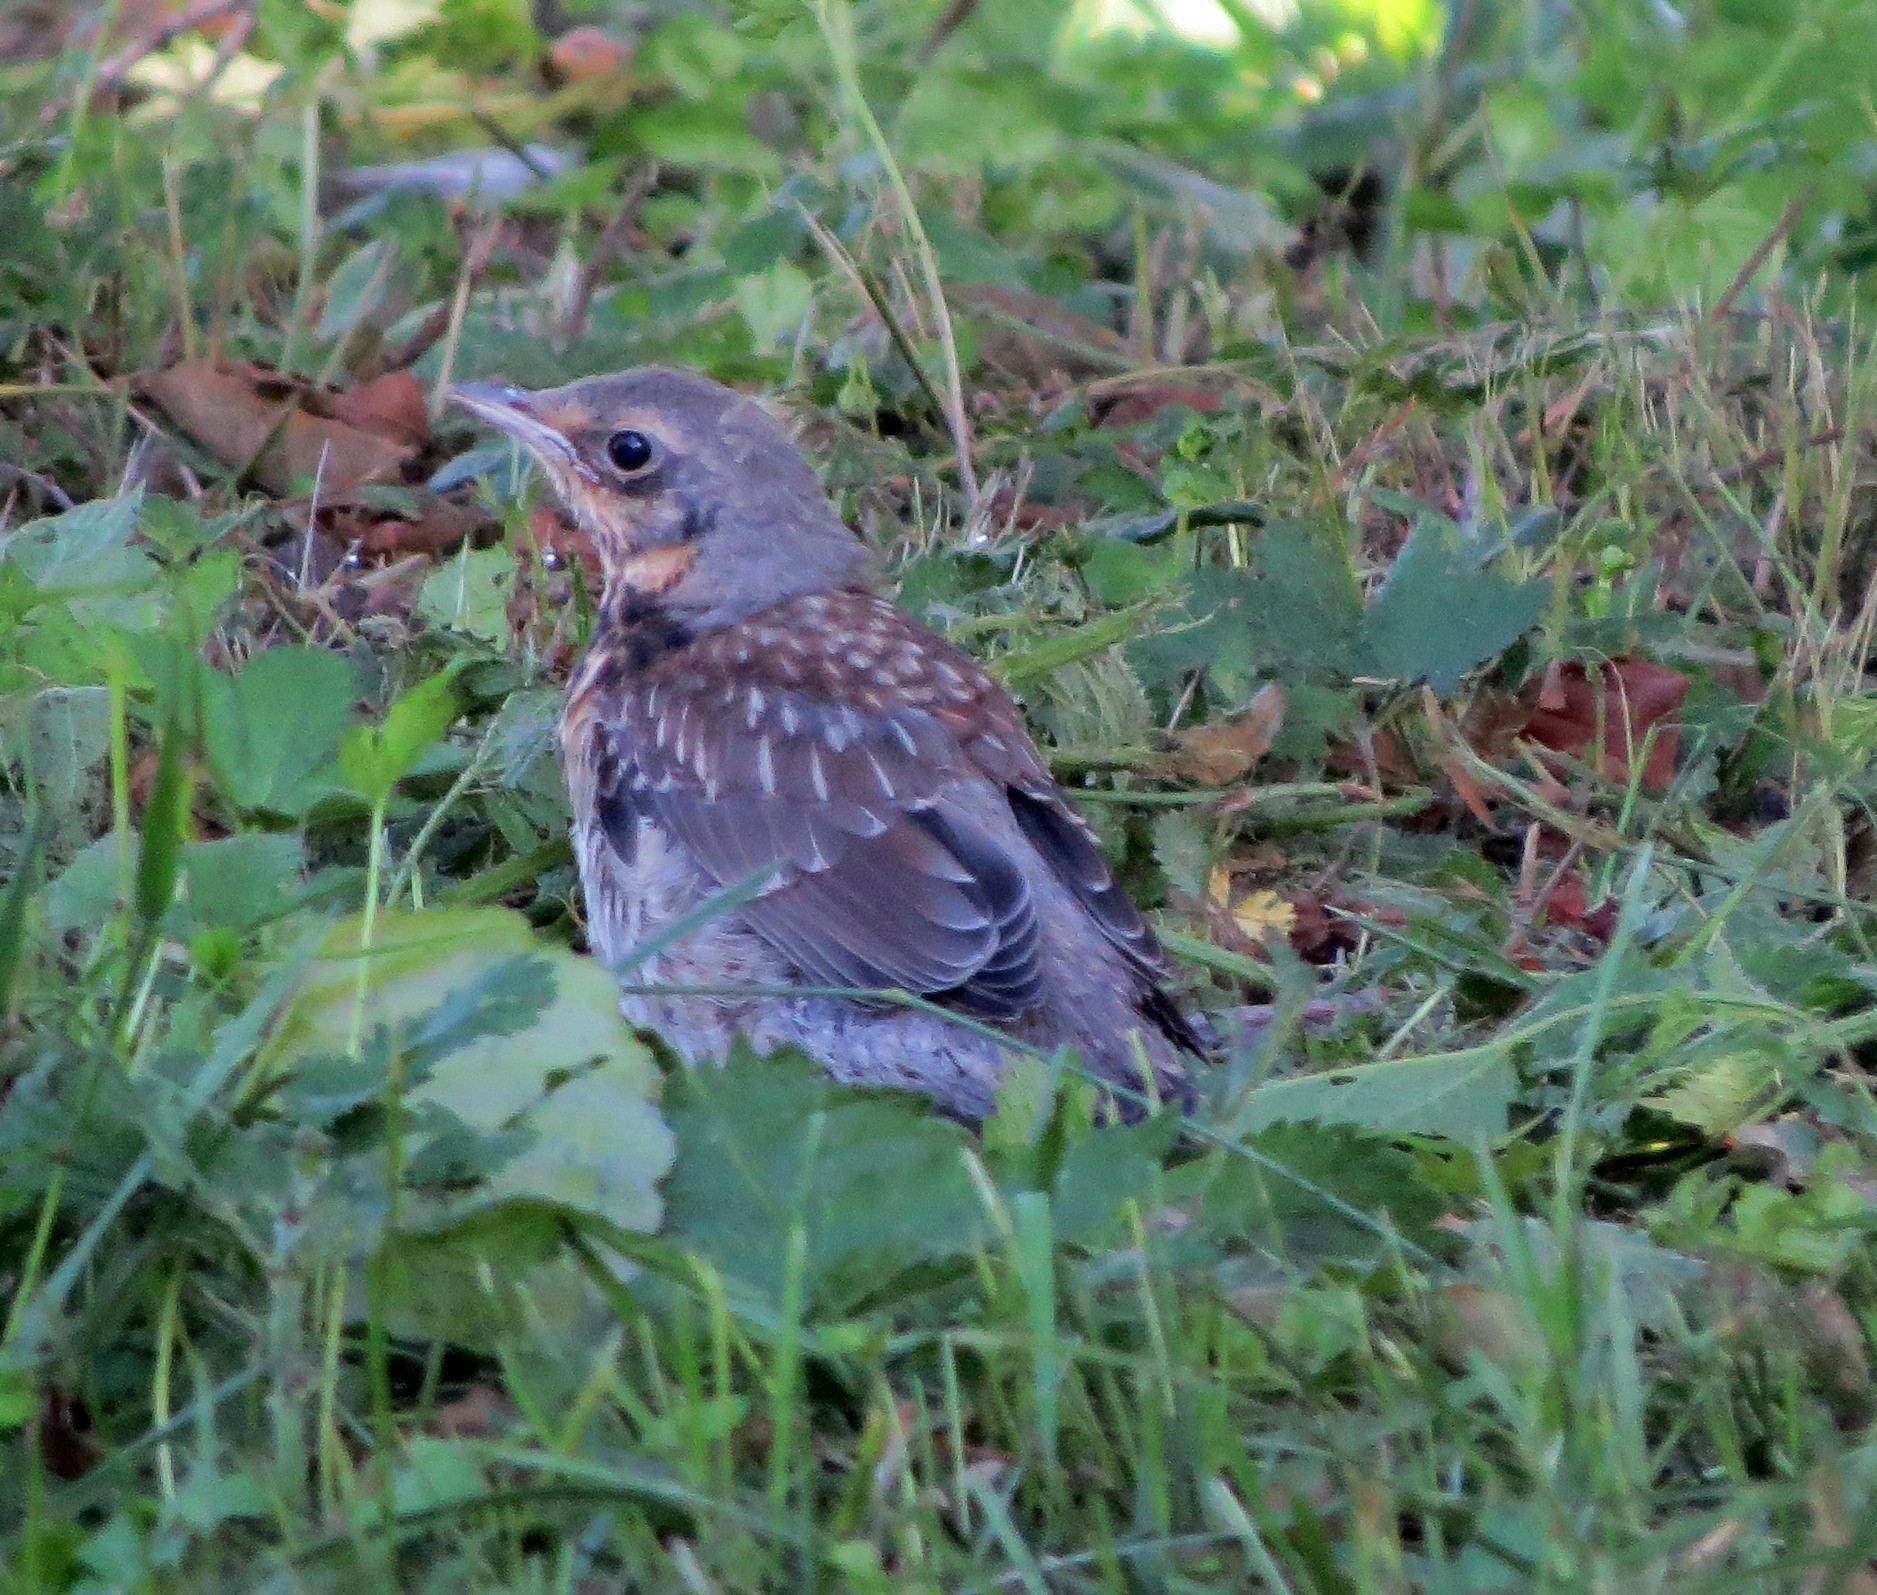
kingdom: Animalia
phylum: Chordata
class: Aves
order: Passeriformes
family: Turdidae
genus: Turdus
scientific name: Turdus pilaris
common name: Fieldfare
